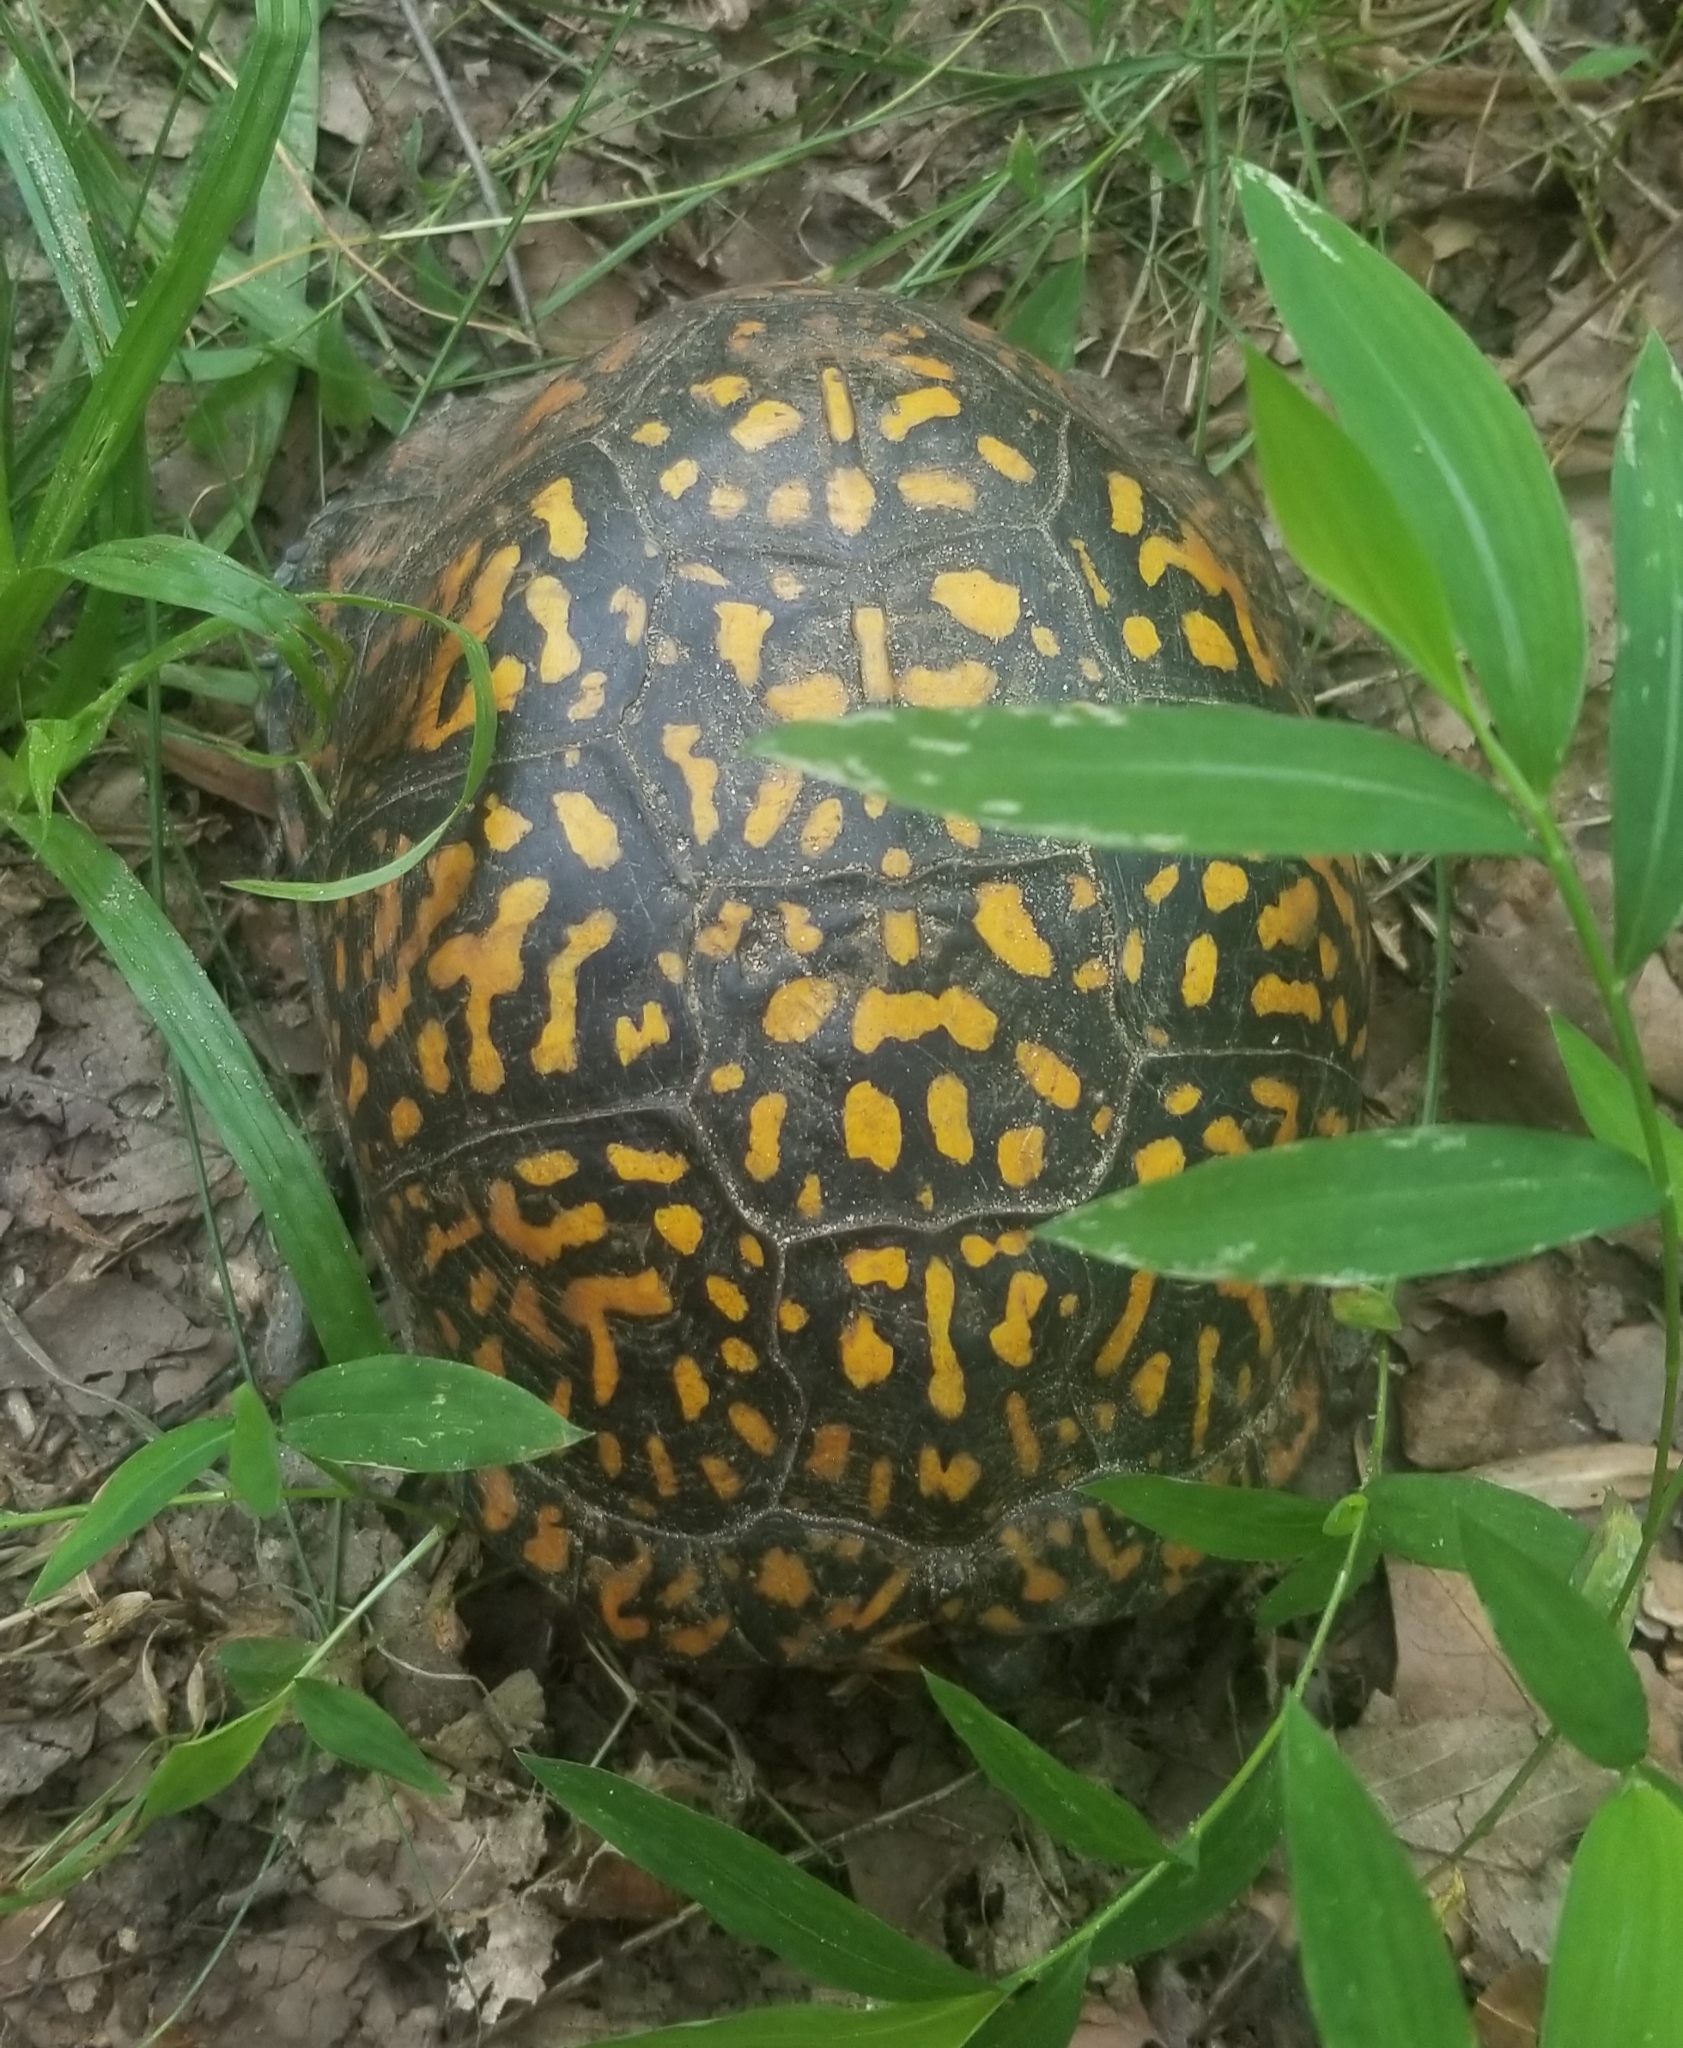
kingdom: Animalia
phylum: Chordata
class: Testudines
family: Emydidae
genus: Terrapene
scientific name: Terrapene carolina
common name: Common box turtle
